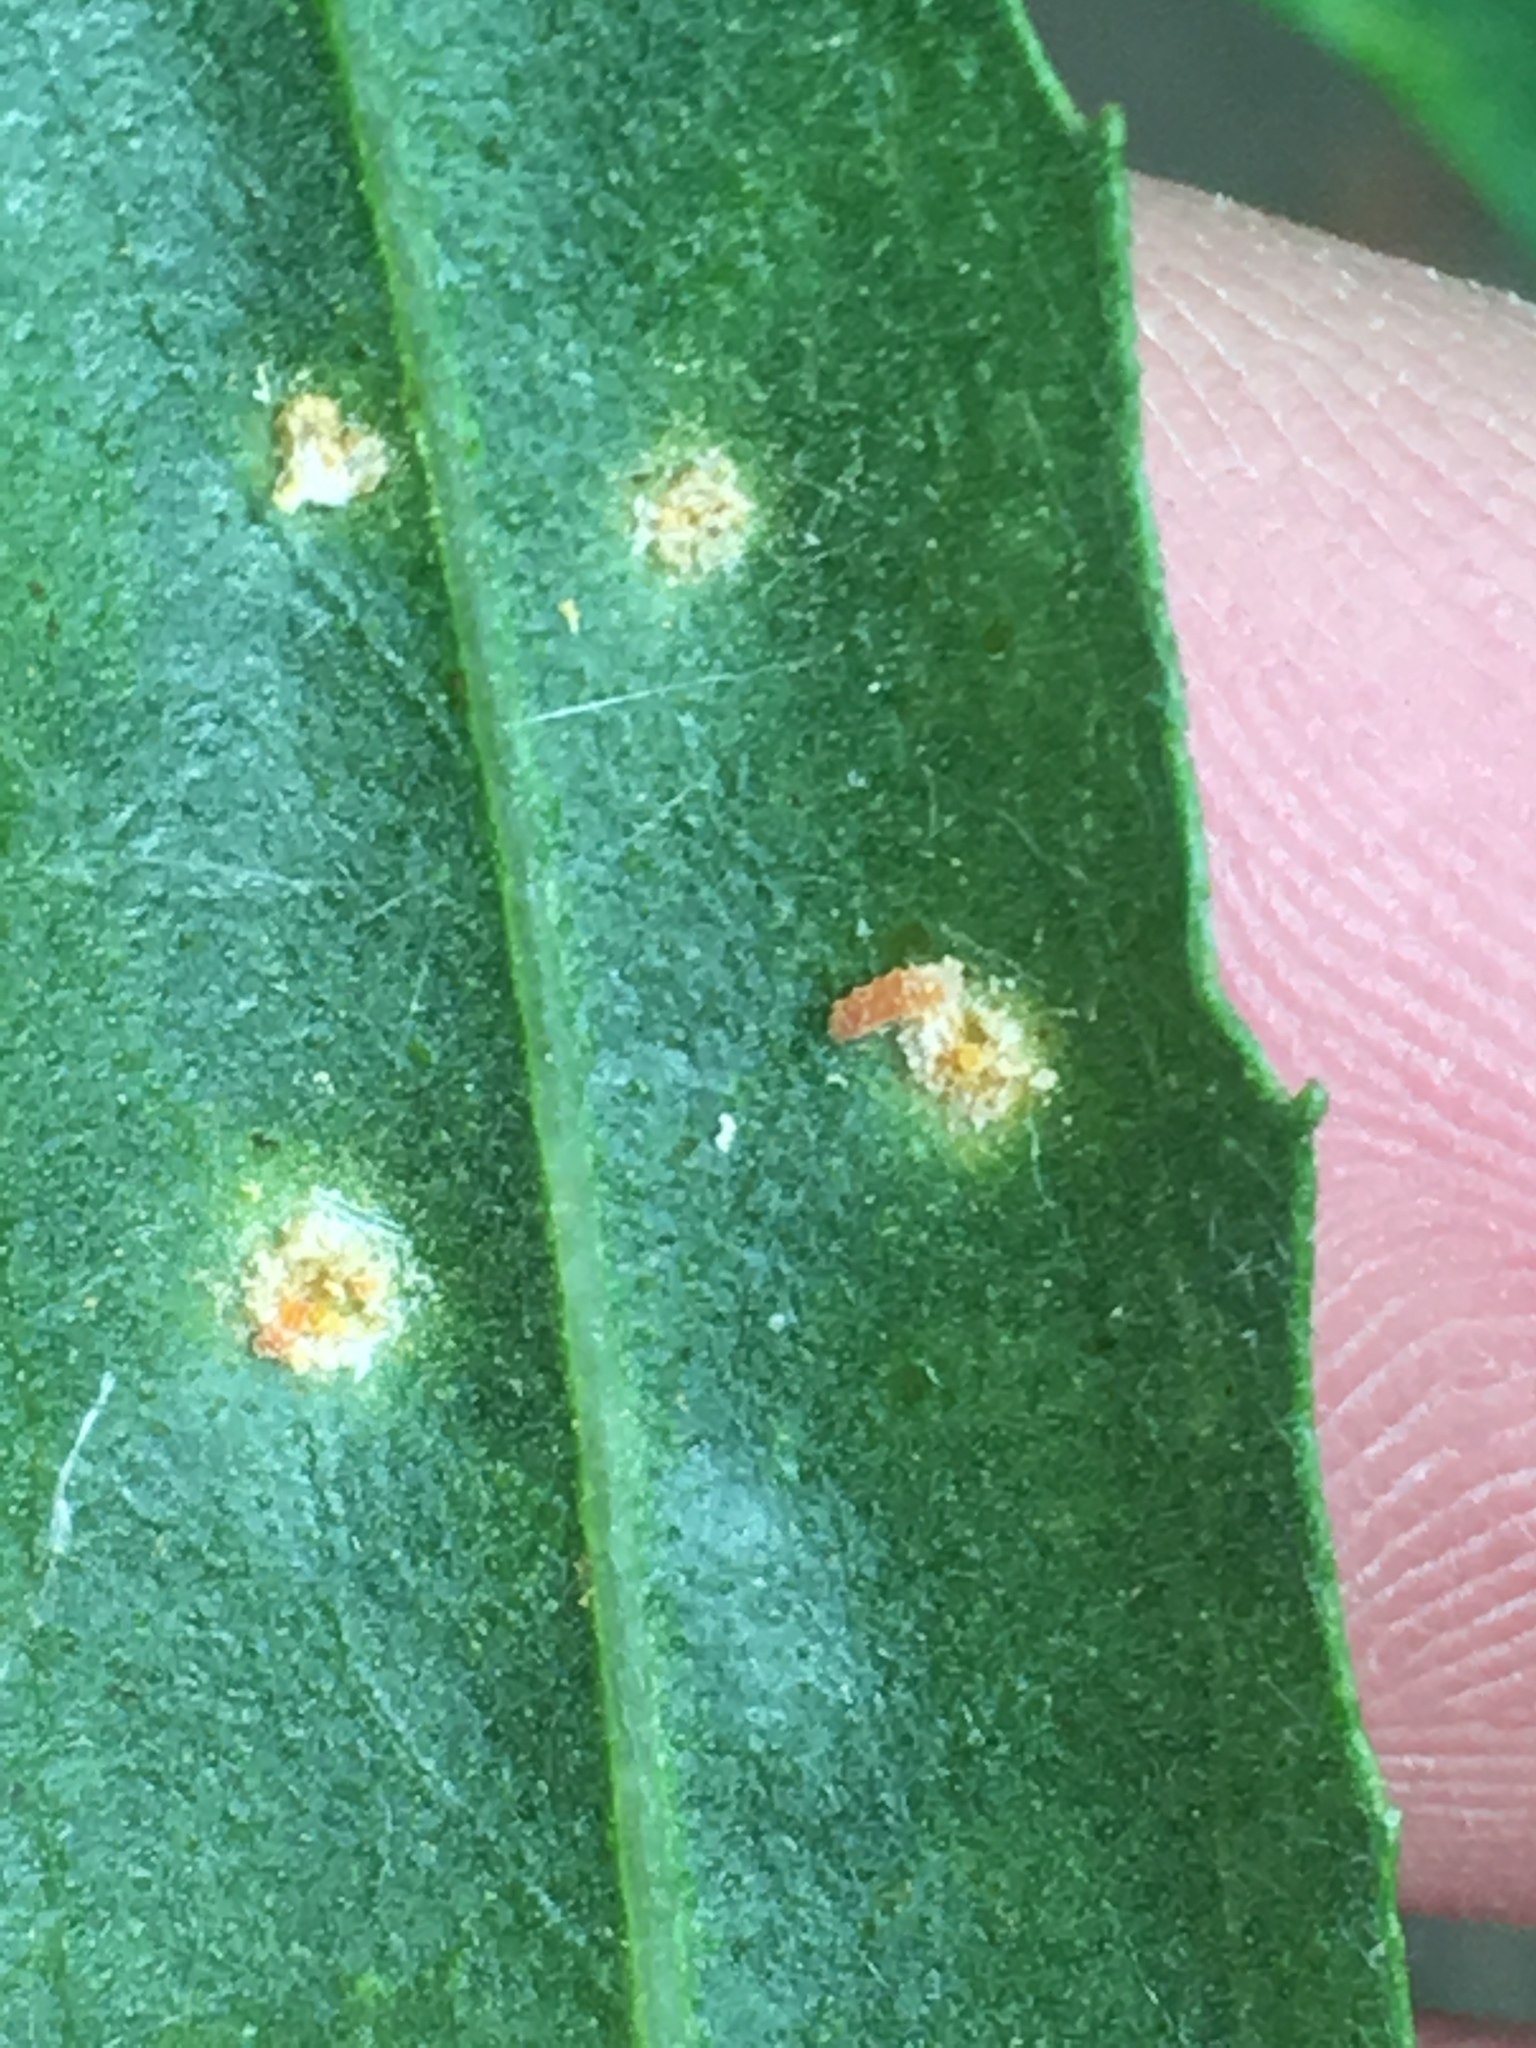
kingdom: Fungi
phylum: Basidiomycota
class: Pucciniomycetes
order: Pucciniales
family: Pucciniaceae
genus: Puccinia
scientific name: Puccinia baccharidis
